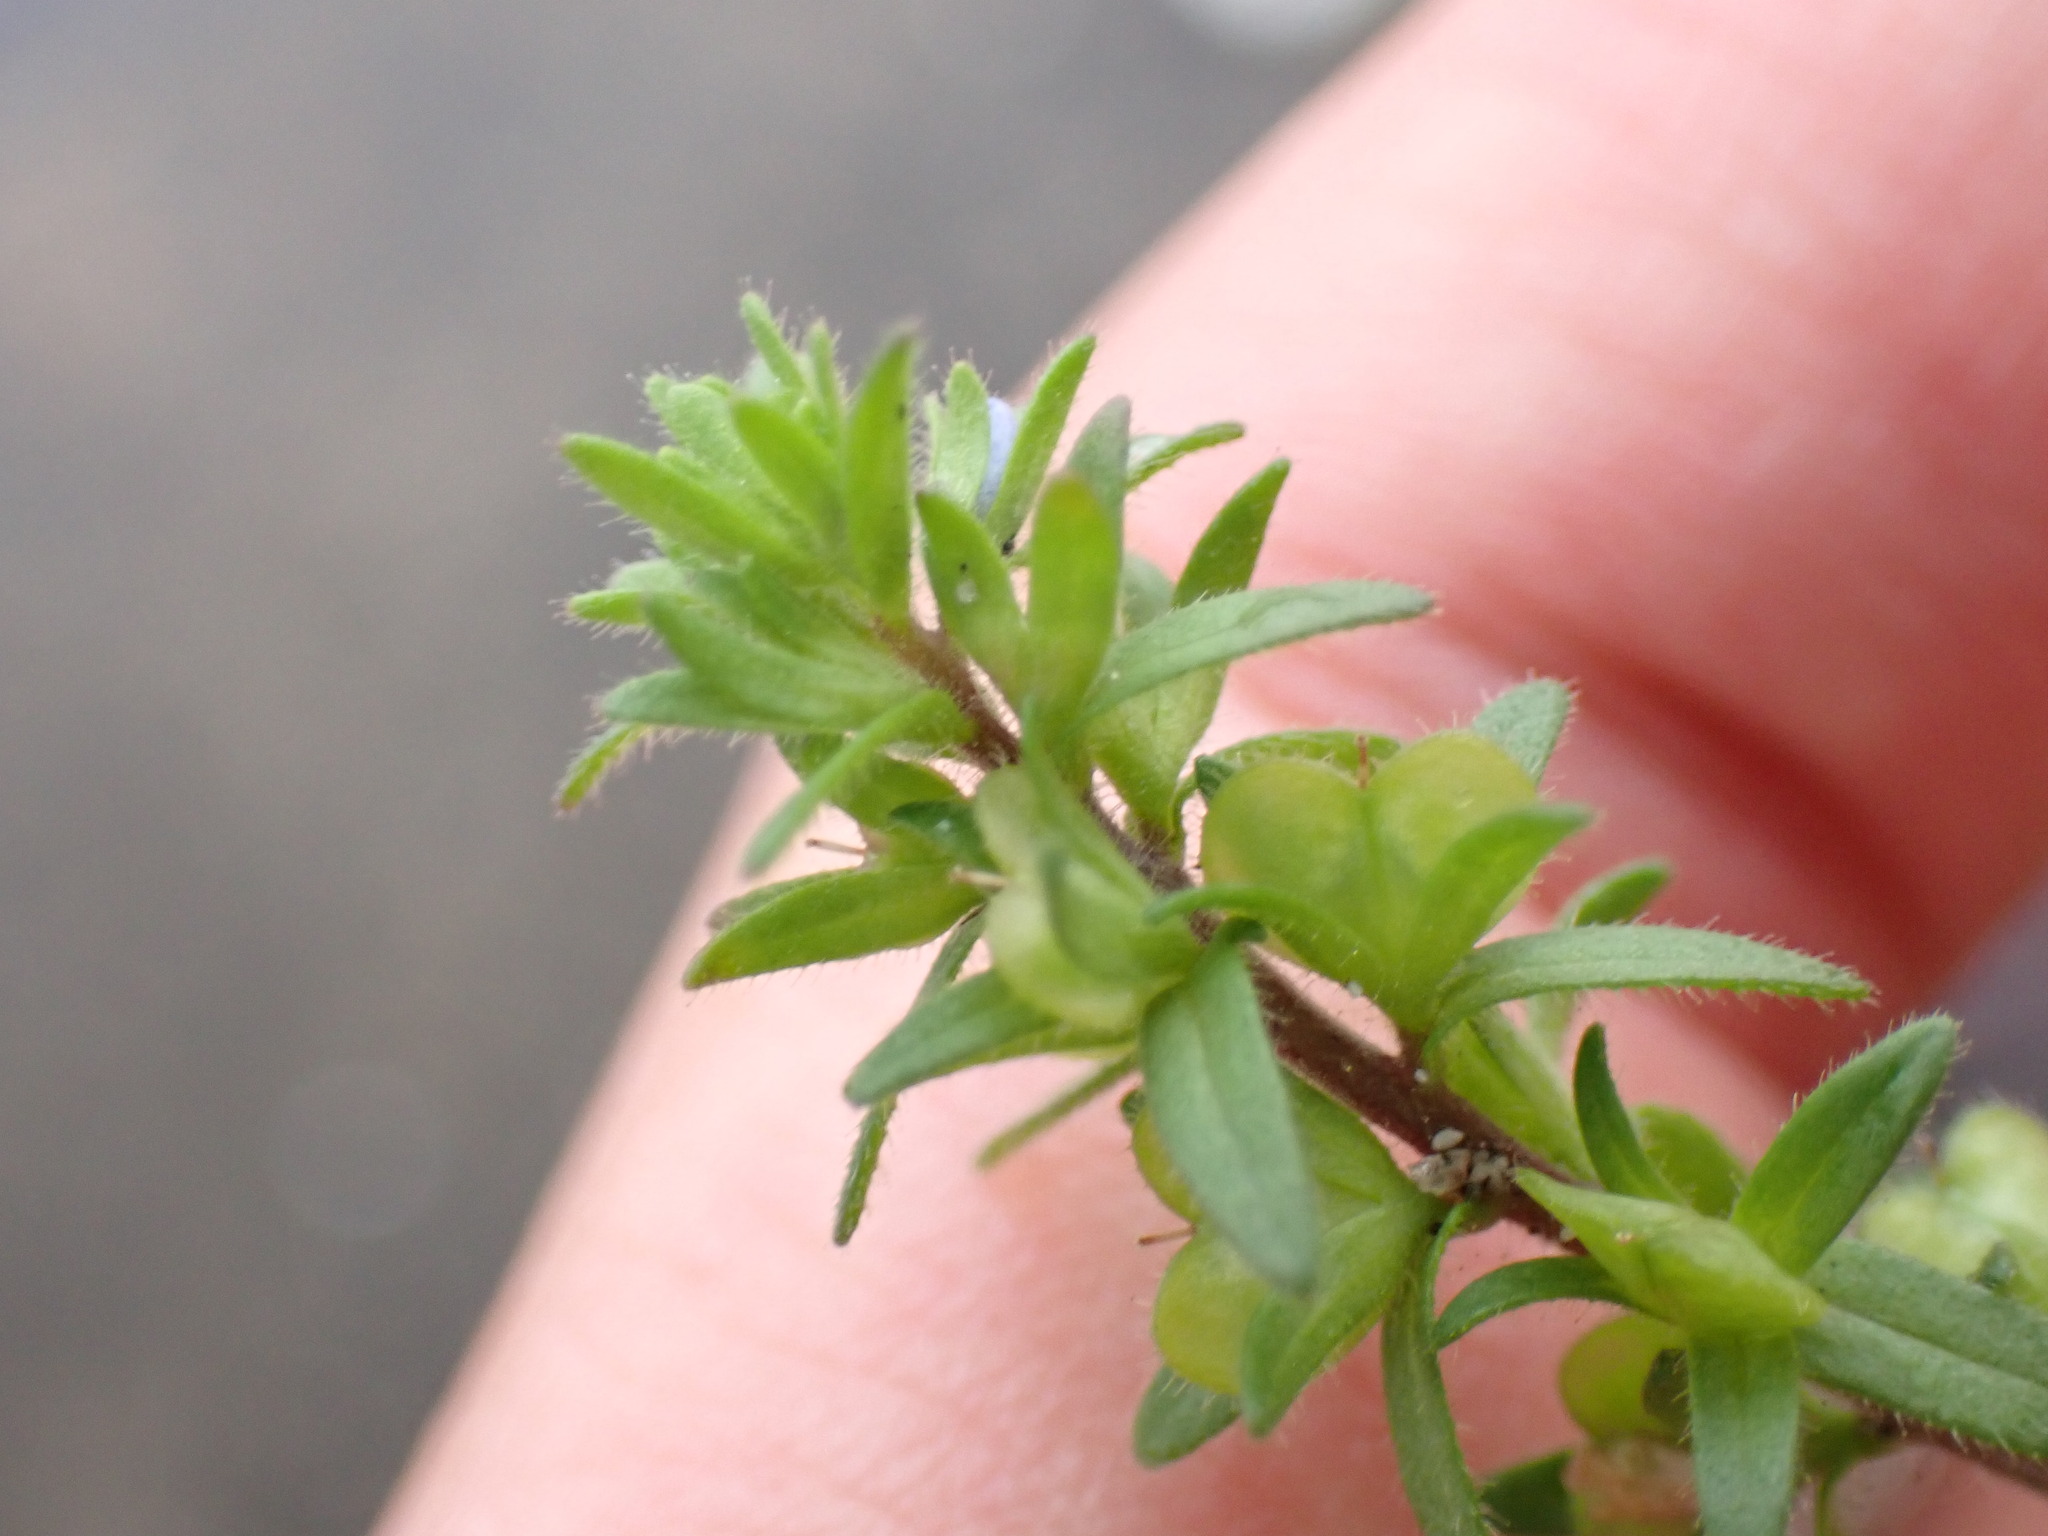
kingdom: Plantae
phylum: Tracheophyta
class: Magnoliopsida
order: Lamiales
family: Plantaginaceae
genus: Veronica
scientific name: Veronica arvensis
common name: Corn speedwell
